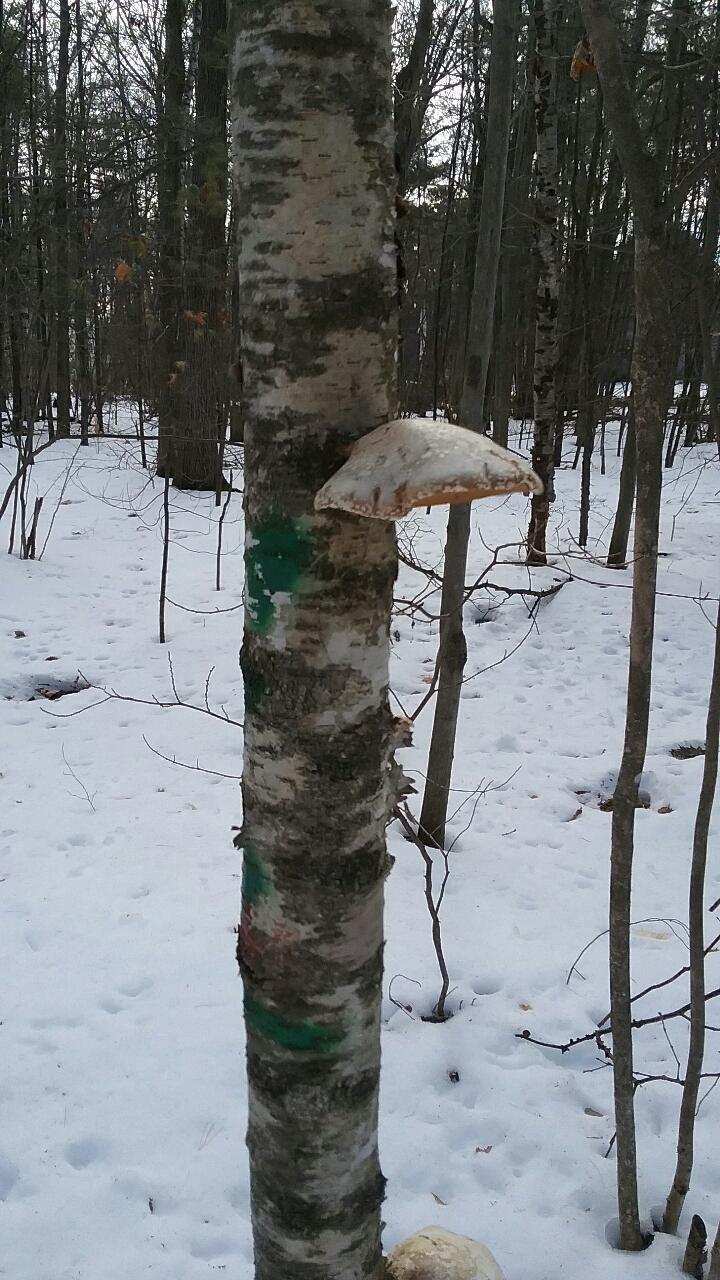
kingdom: Fungi
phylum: Basidiomycota
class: Agaricomycetes
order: Polyporales
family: Fomitopsidaceae
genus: Fomitopsis
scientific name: Fomitopsis betulina
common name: Birch polypore
